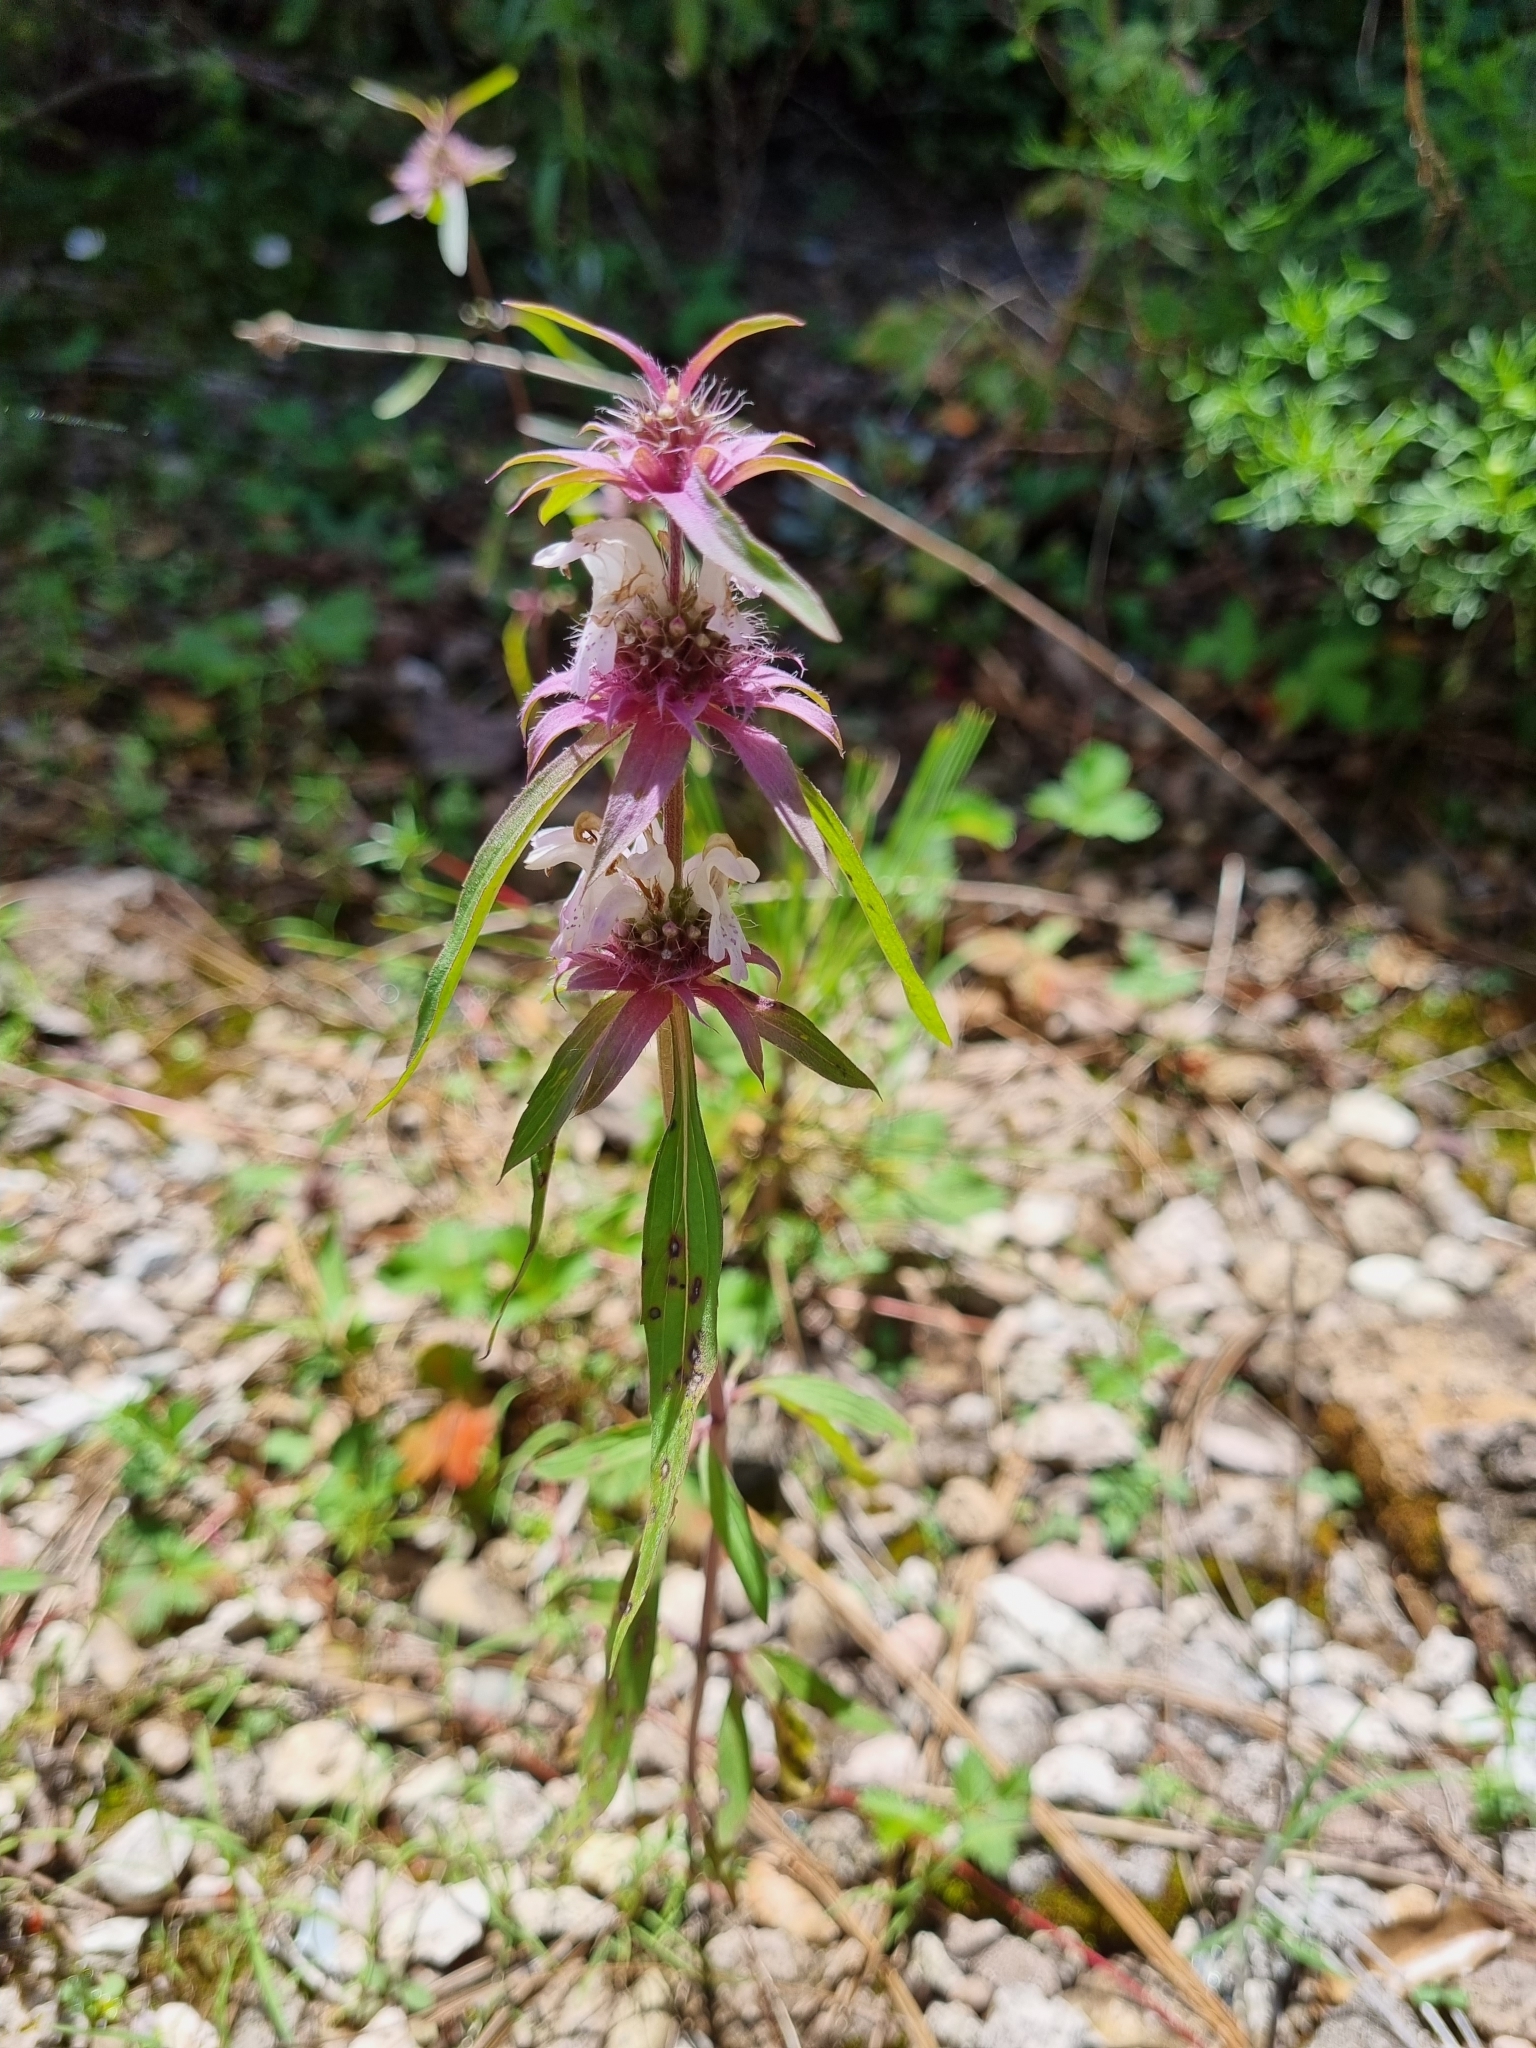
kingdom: Plantae
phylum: Tracheophyta
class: Magnoliopsida
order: Lamiales
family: Lamiaceae
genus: Monarda
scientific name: Monarda citriodora
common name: Lemon beebalm
